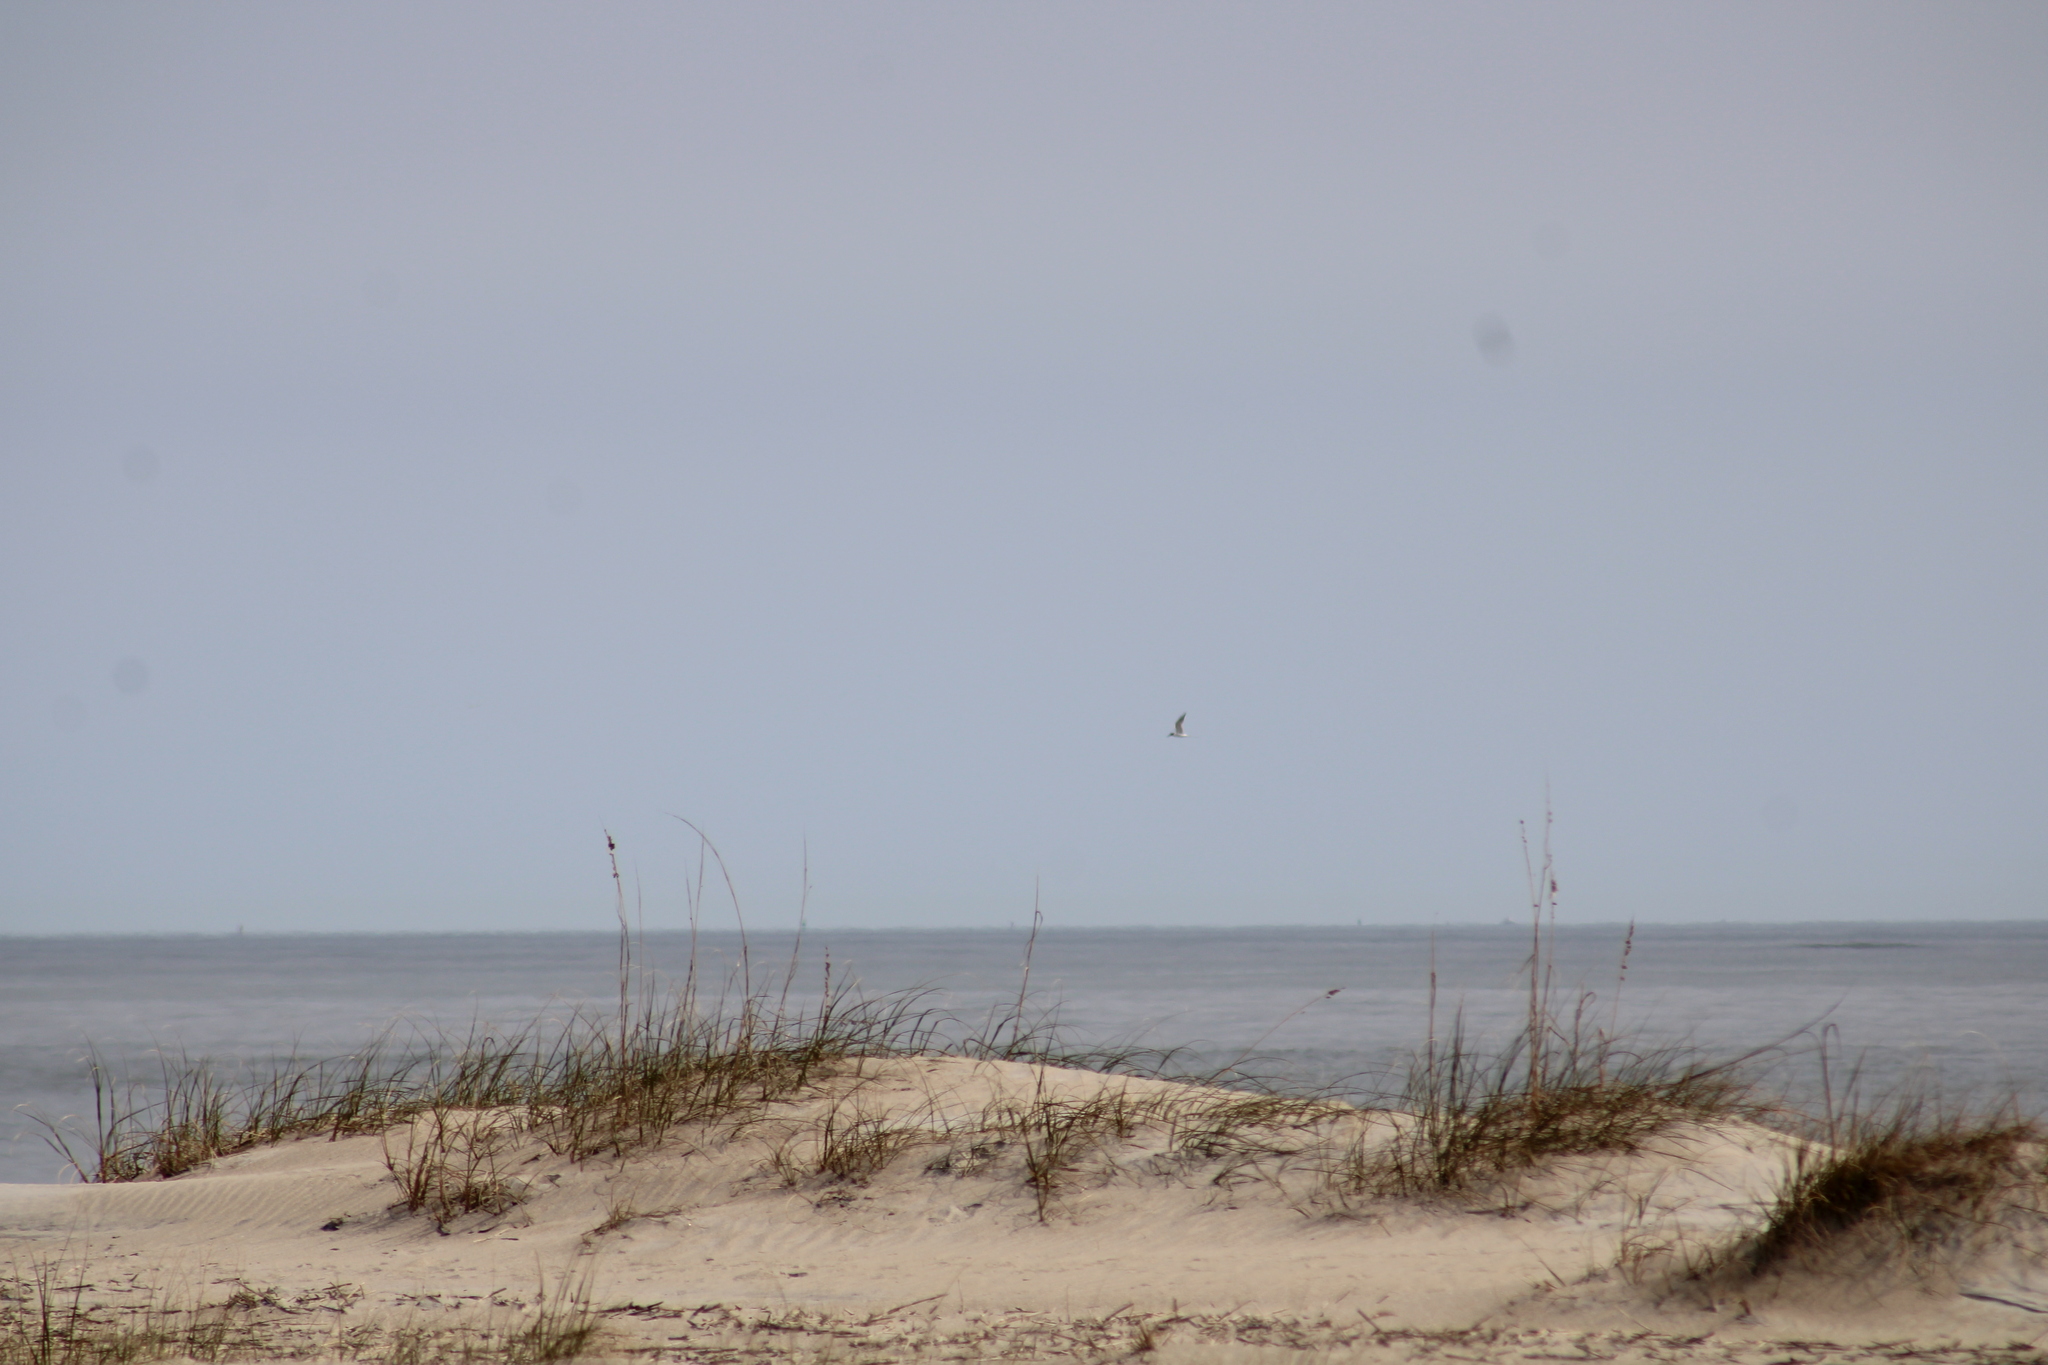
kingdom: Animalia
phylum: Chordata
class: Aves
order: Charadriiformes
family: Laridae
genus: Sterna
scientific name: Sterna forsteri
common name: Forster's tern
